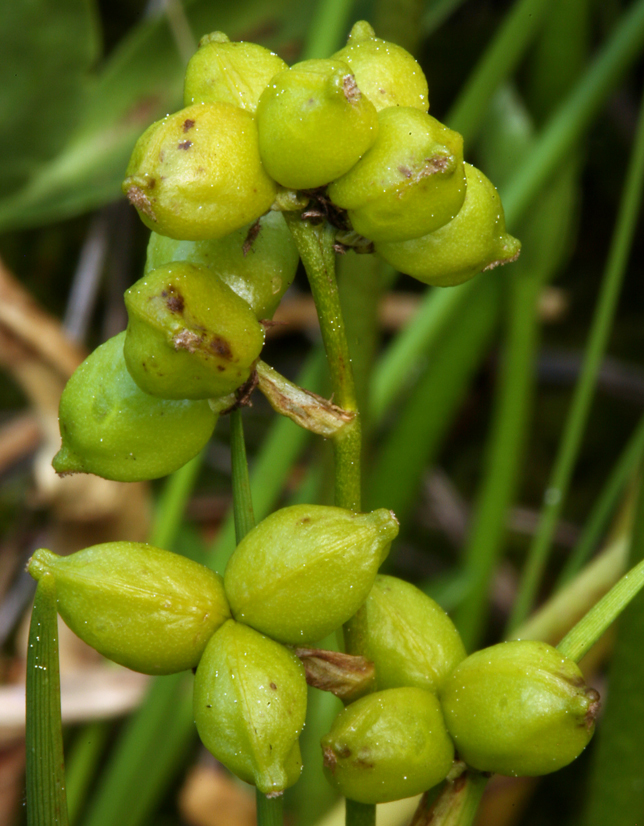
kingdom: Plantae
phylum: Tracheophyta
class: Liliopsida
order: Alismatales
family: Scheuchzeriaceae
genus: Scheuchzeria
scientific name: Scheuchzeria palustris
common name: Rannoch-rush
